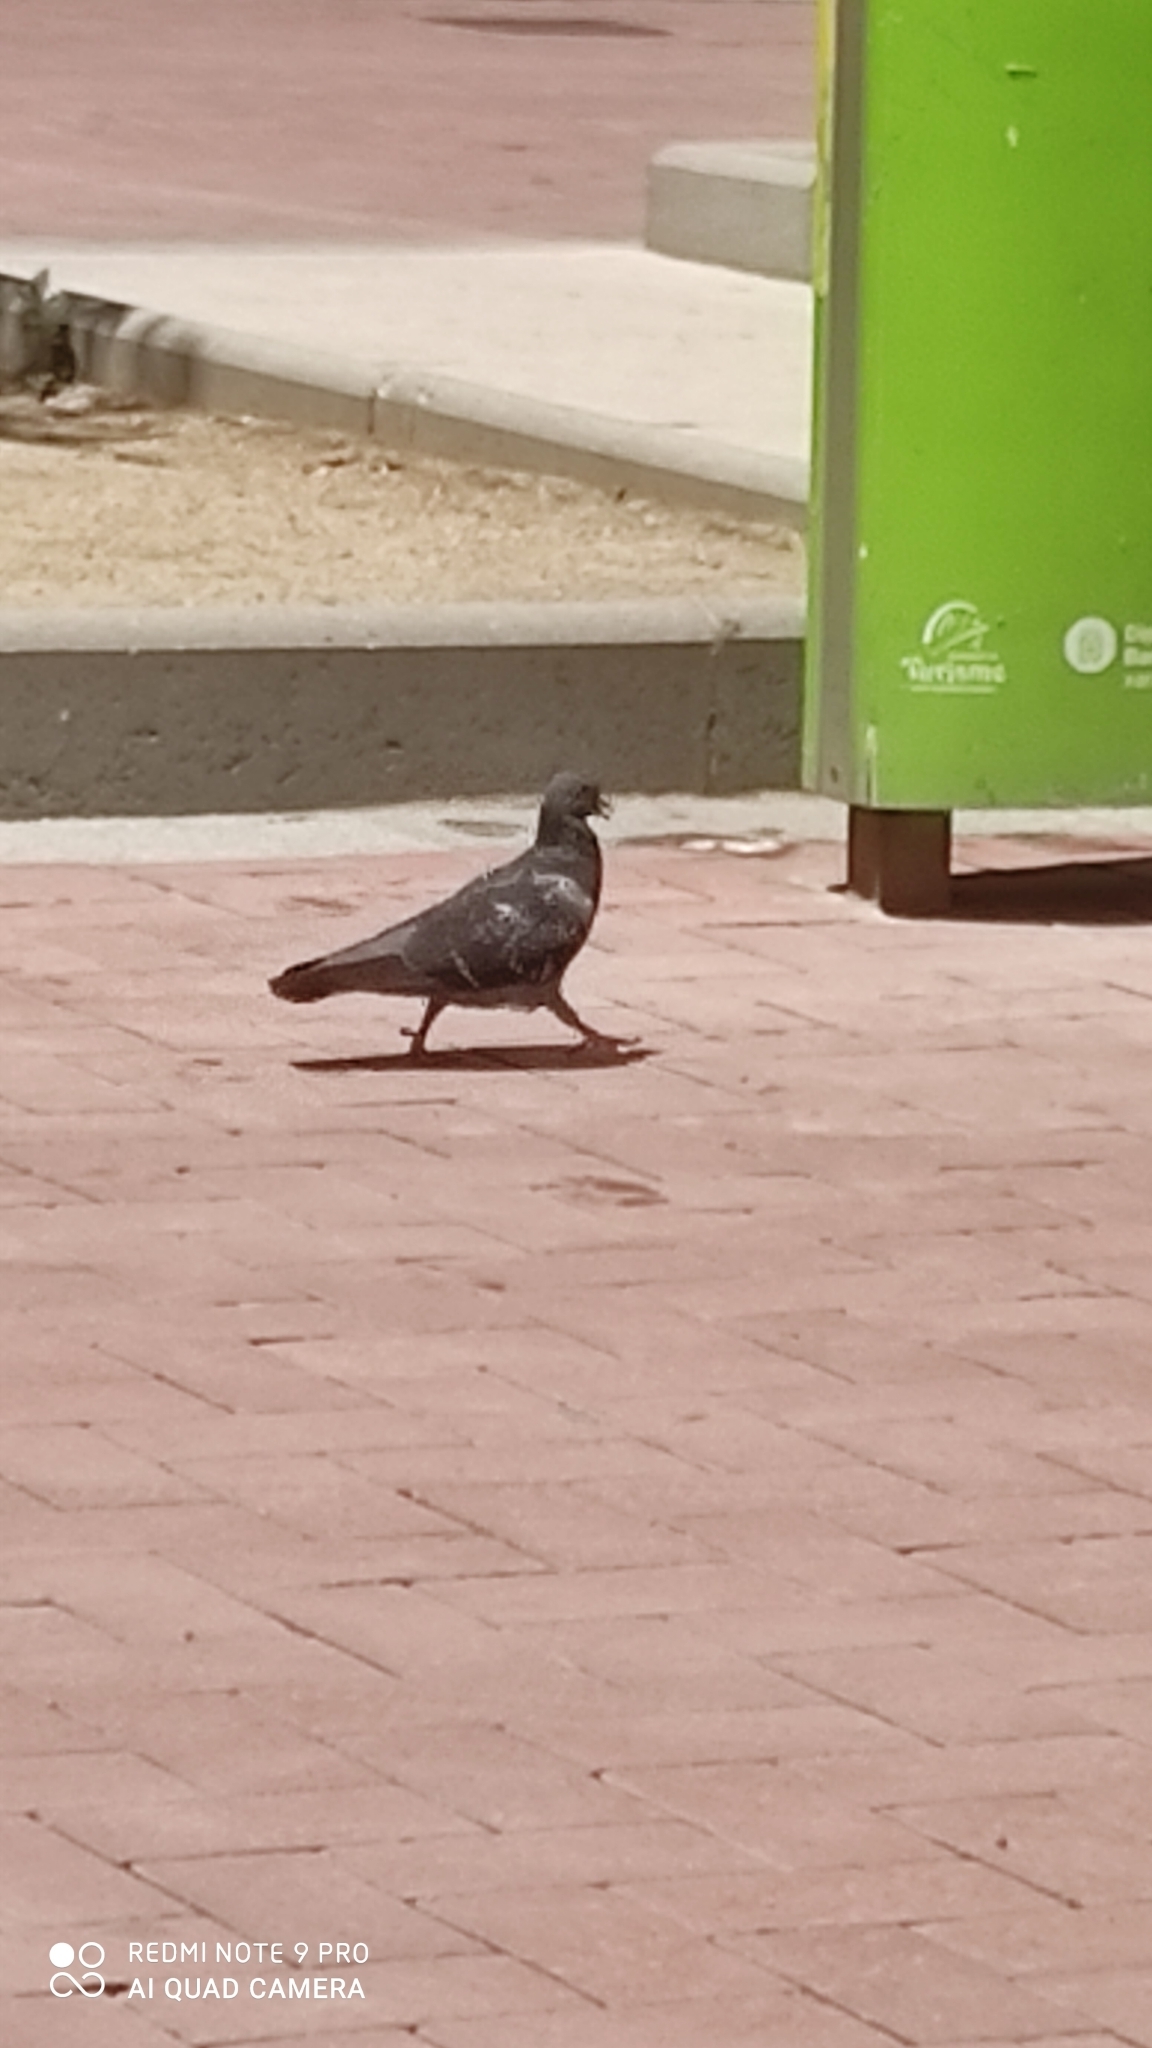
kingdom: Animalia
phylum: Chordata
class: Aves
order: Columbiformes
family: Columbidae
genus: Columba
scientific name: Columba livia
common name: Rock pigeon
